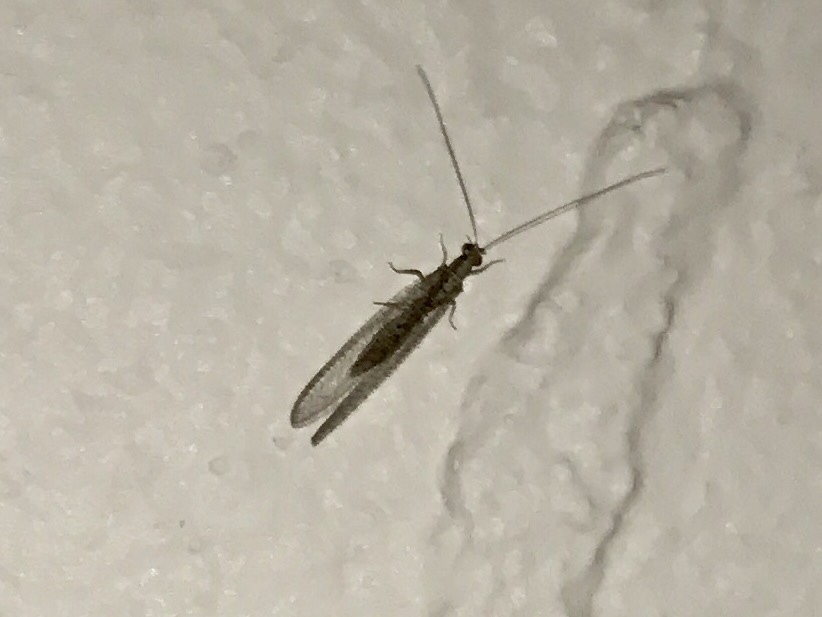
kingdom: Animalia
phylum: Arthropoda
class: Insecta
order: Neuroptera
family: Chrysopidae
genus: Eremochrysa
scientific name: Eremochrysa
